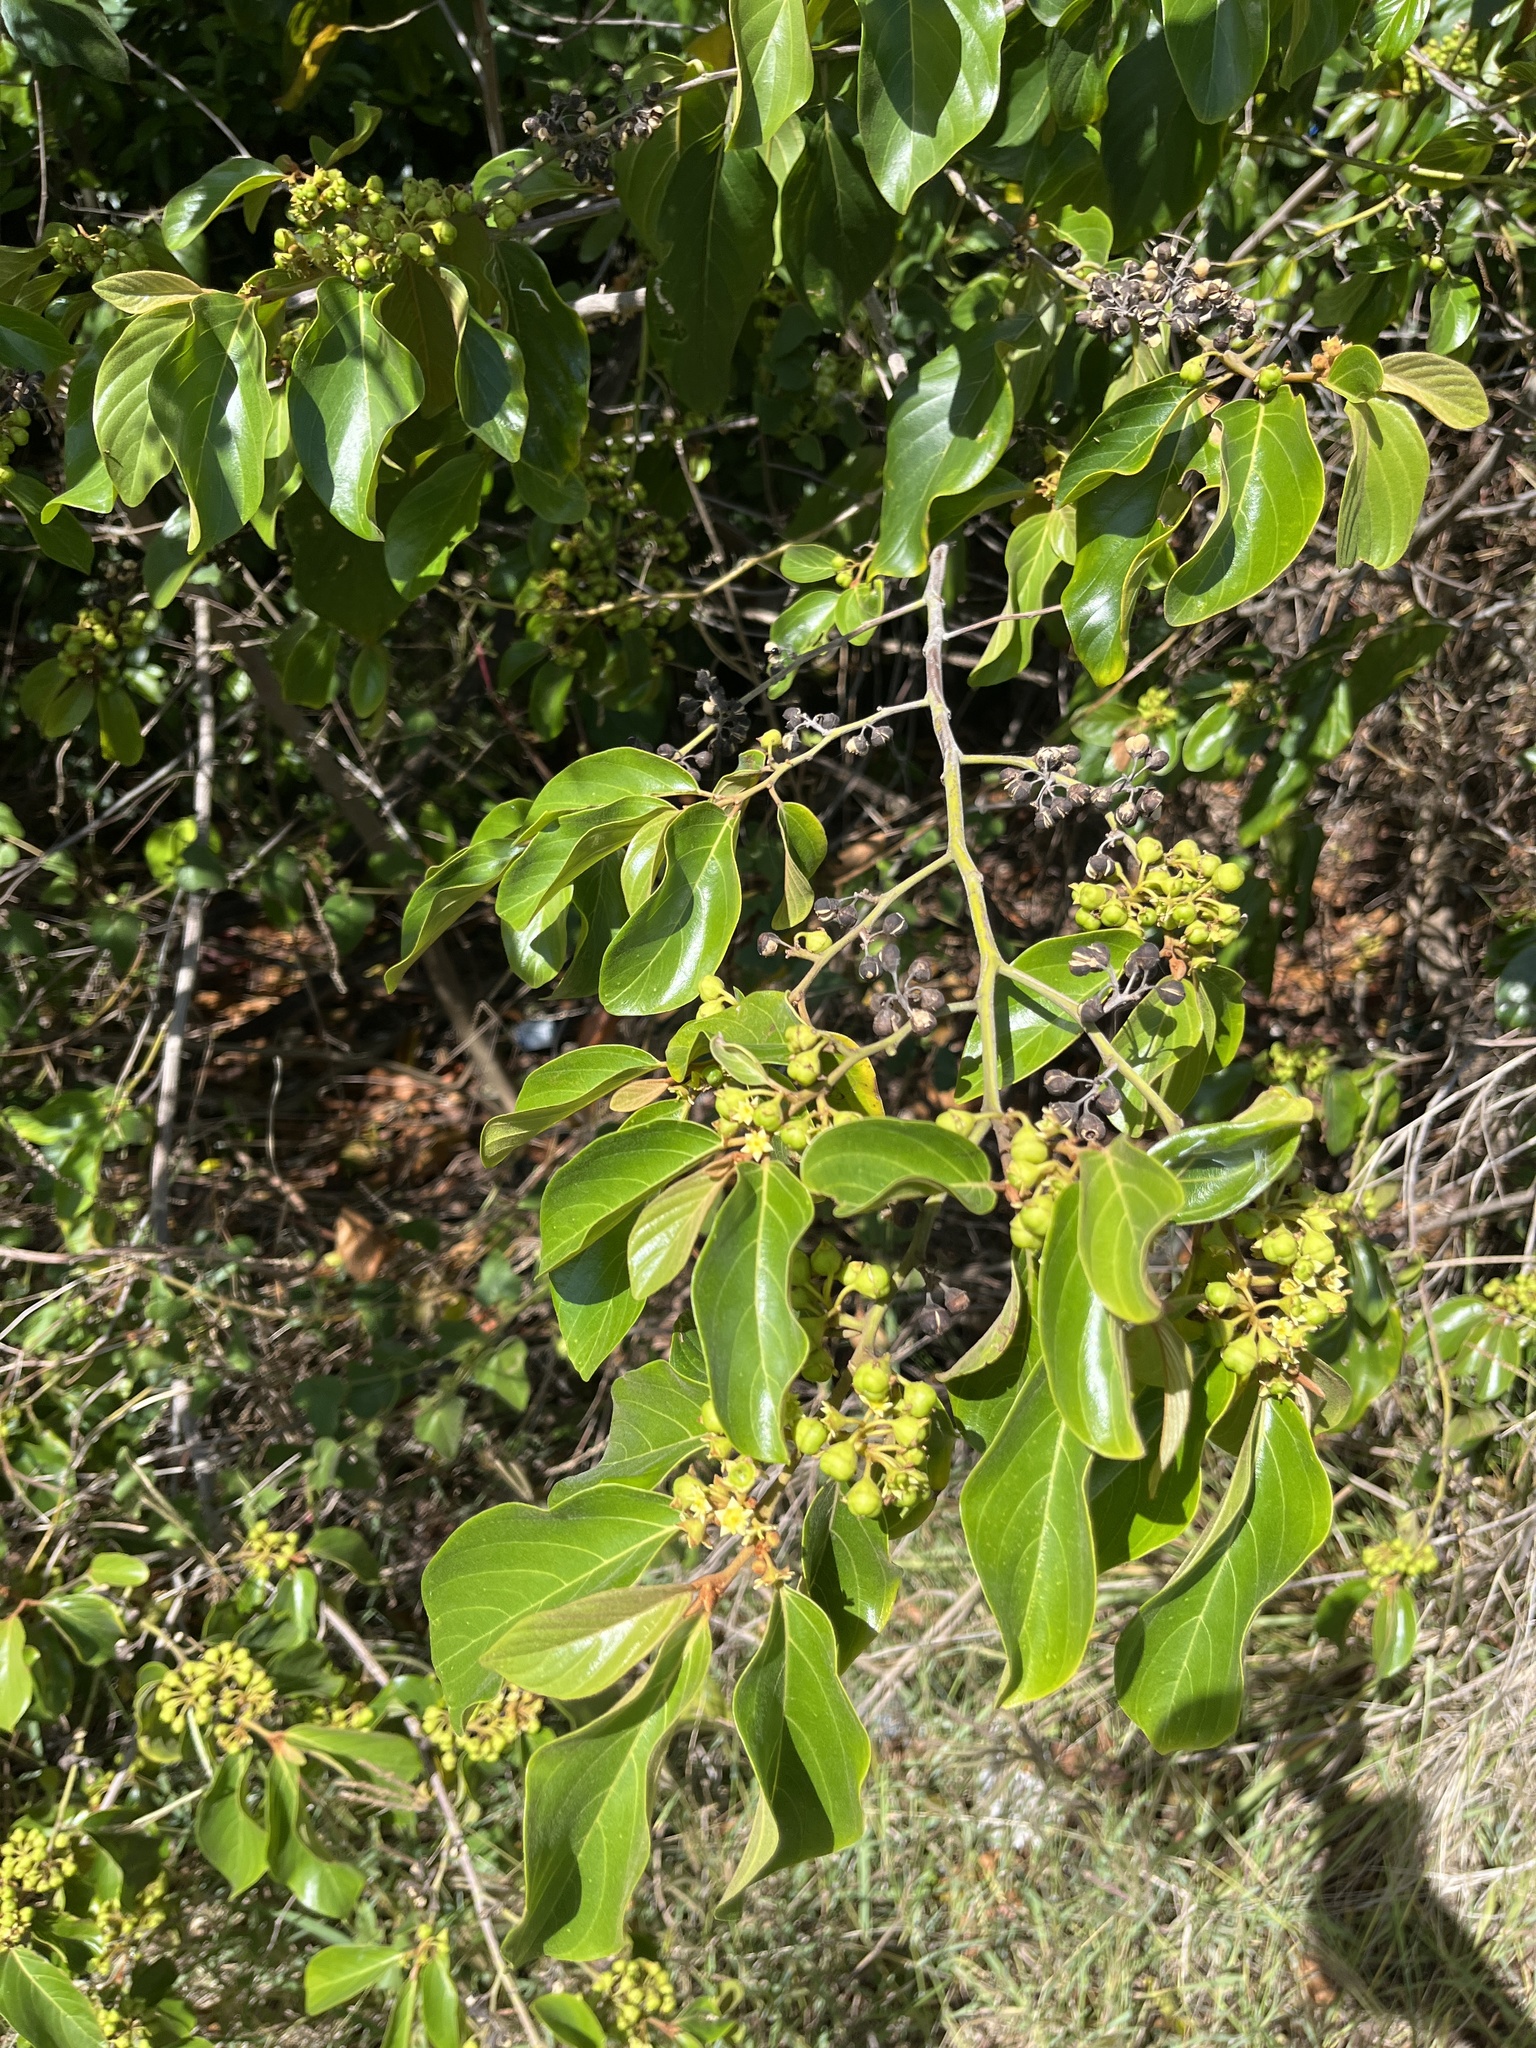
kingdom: Plantae
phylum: Tracheophyta
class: Magnoliopsida
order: Rosales
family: Rhamnaceae
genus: Colubrina
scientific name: Colubrina arborescens
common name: Wild coffee
